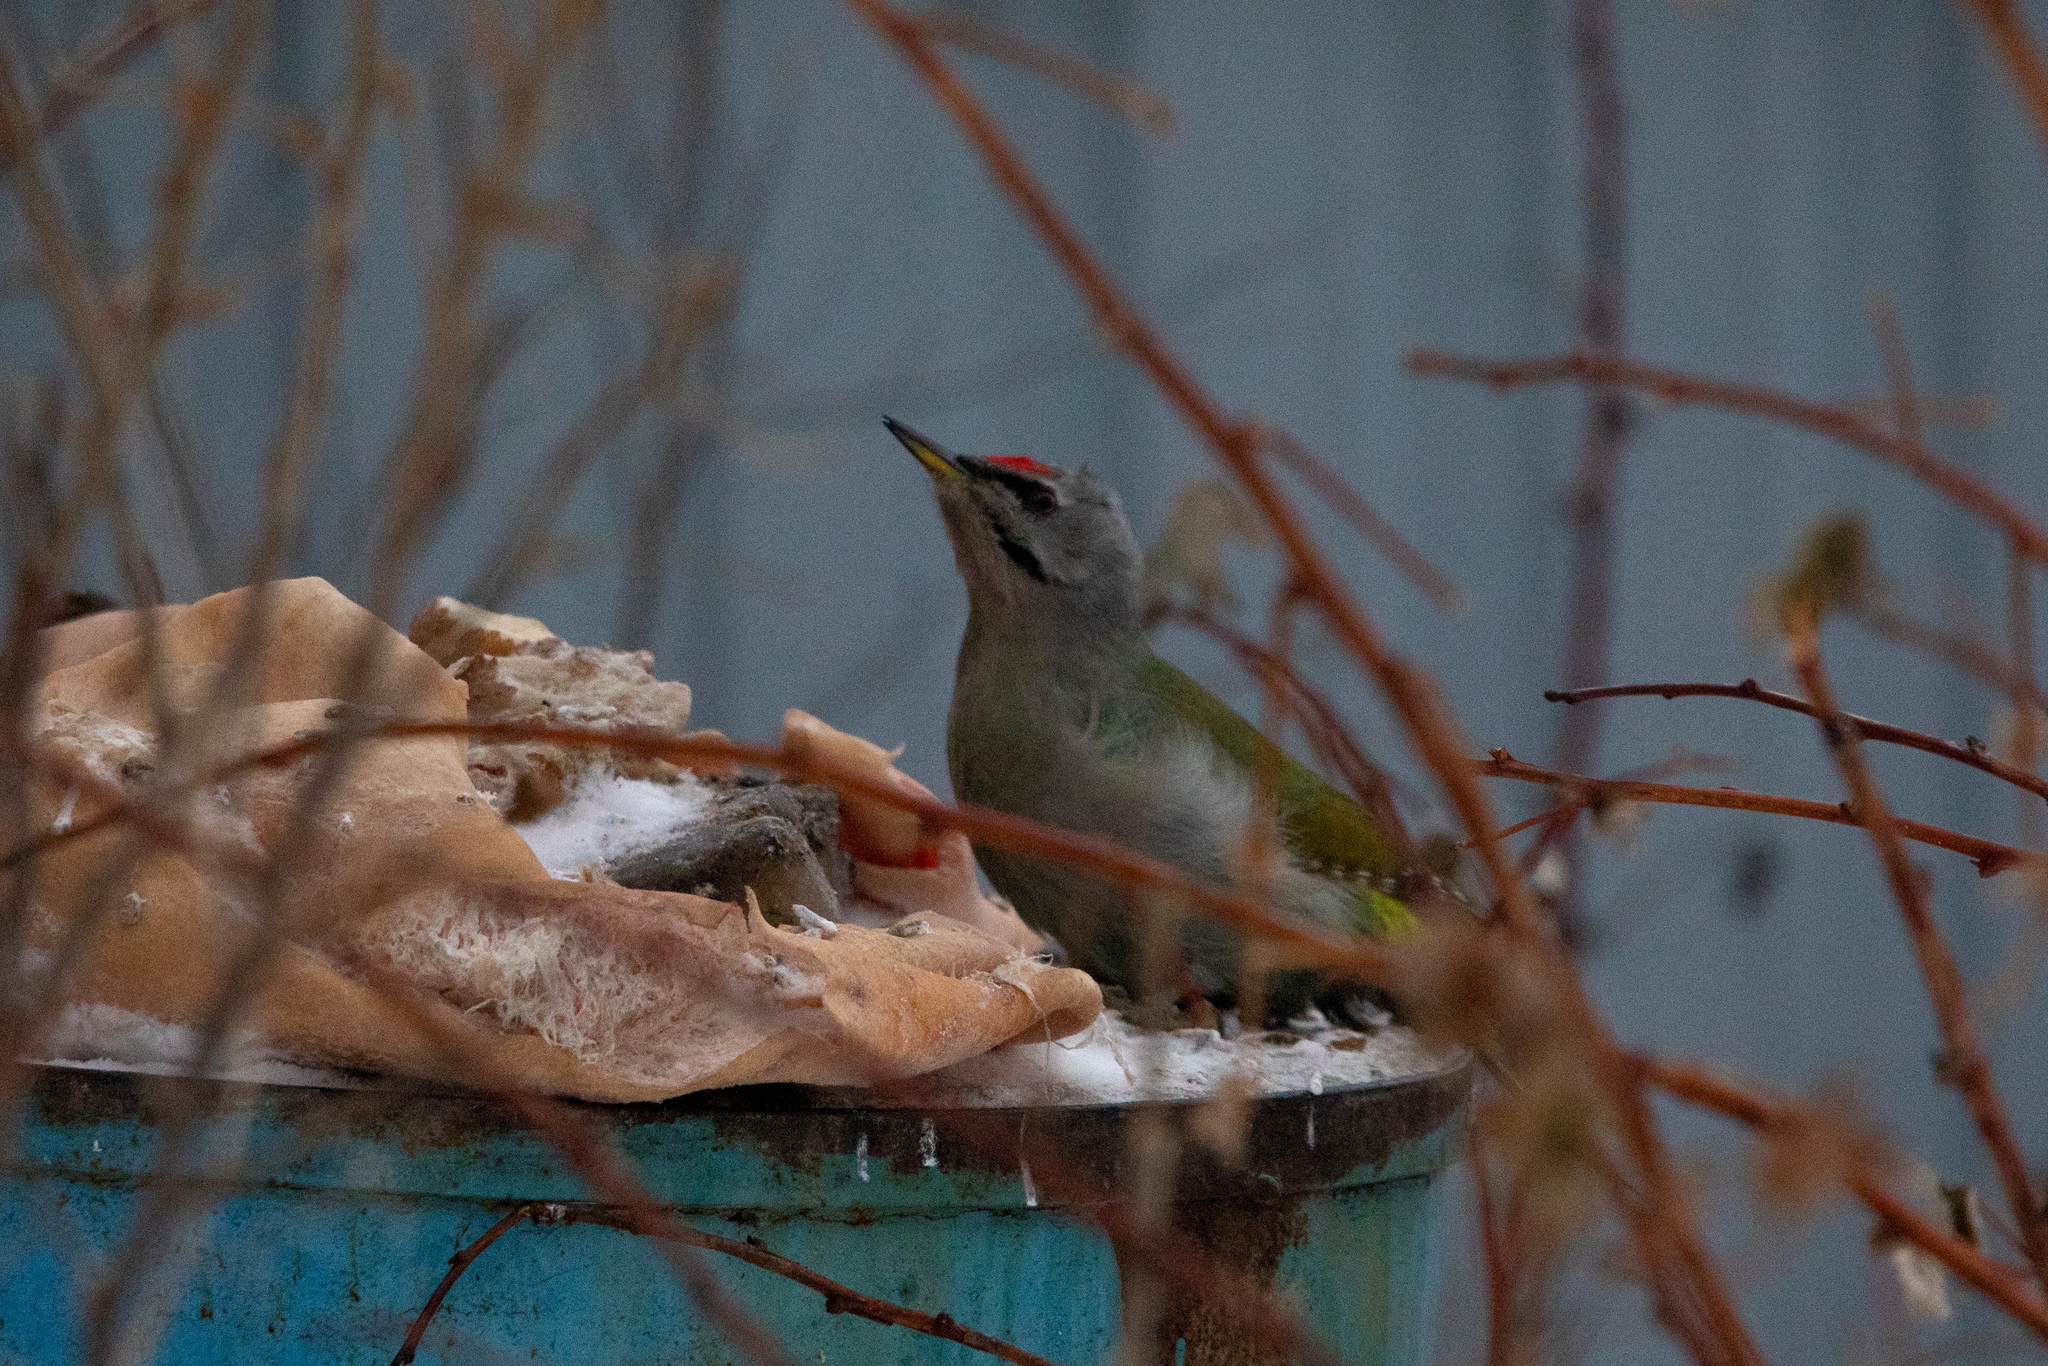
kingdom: Animalia
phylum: Chordata
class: Aves
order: Piciformes
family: Picidae
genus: Picus
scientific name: Picus canus
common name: Grey-headed woodpecker
